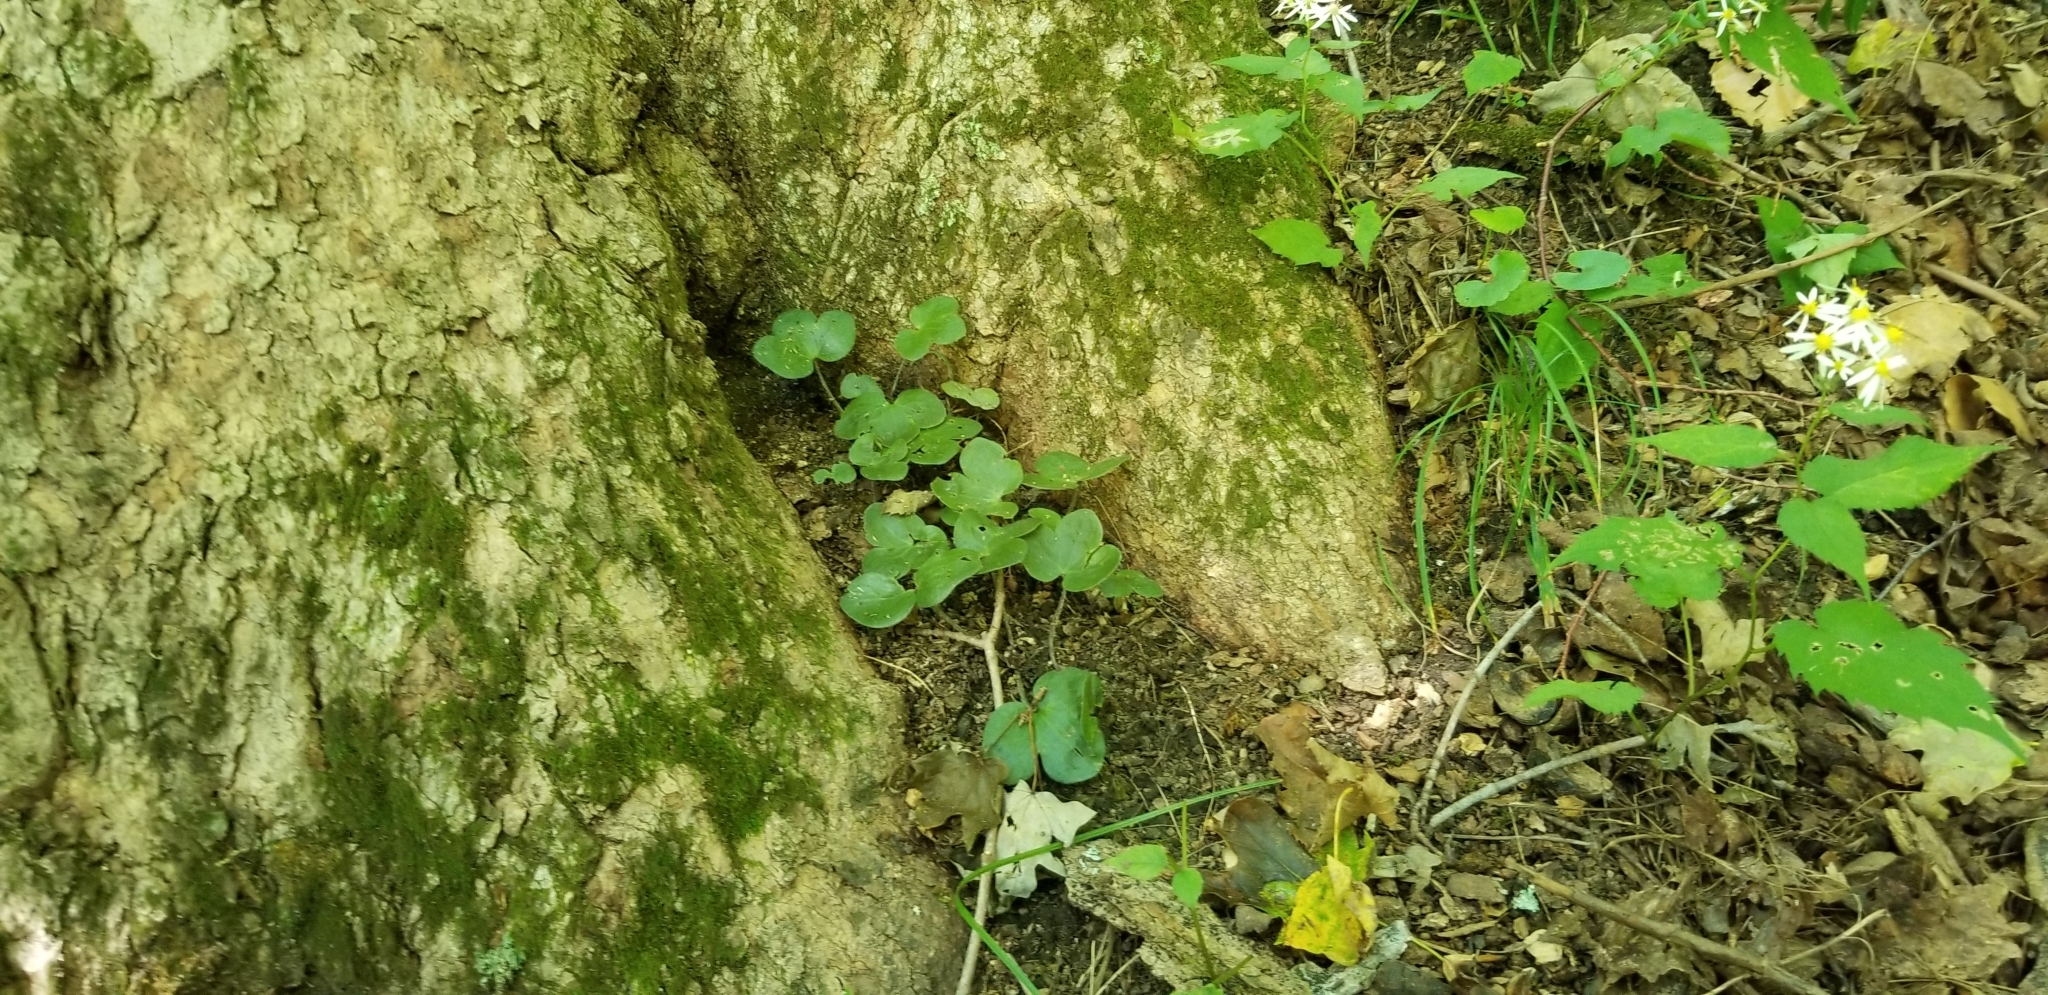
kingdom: Plantae
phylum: Tracheophyta
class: Magnoliopsida
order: Ranunculales
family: Ranunculaceae
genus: Hepatica
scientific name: Hepatica americana
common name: American hepatica
